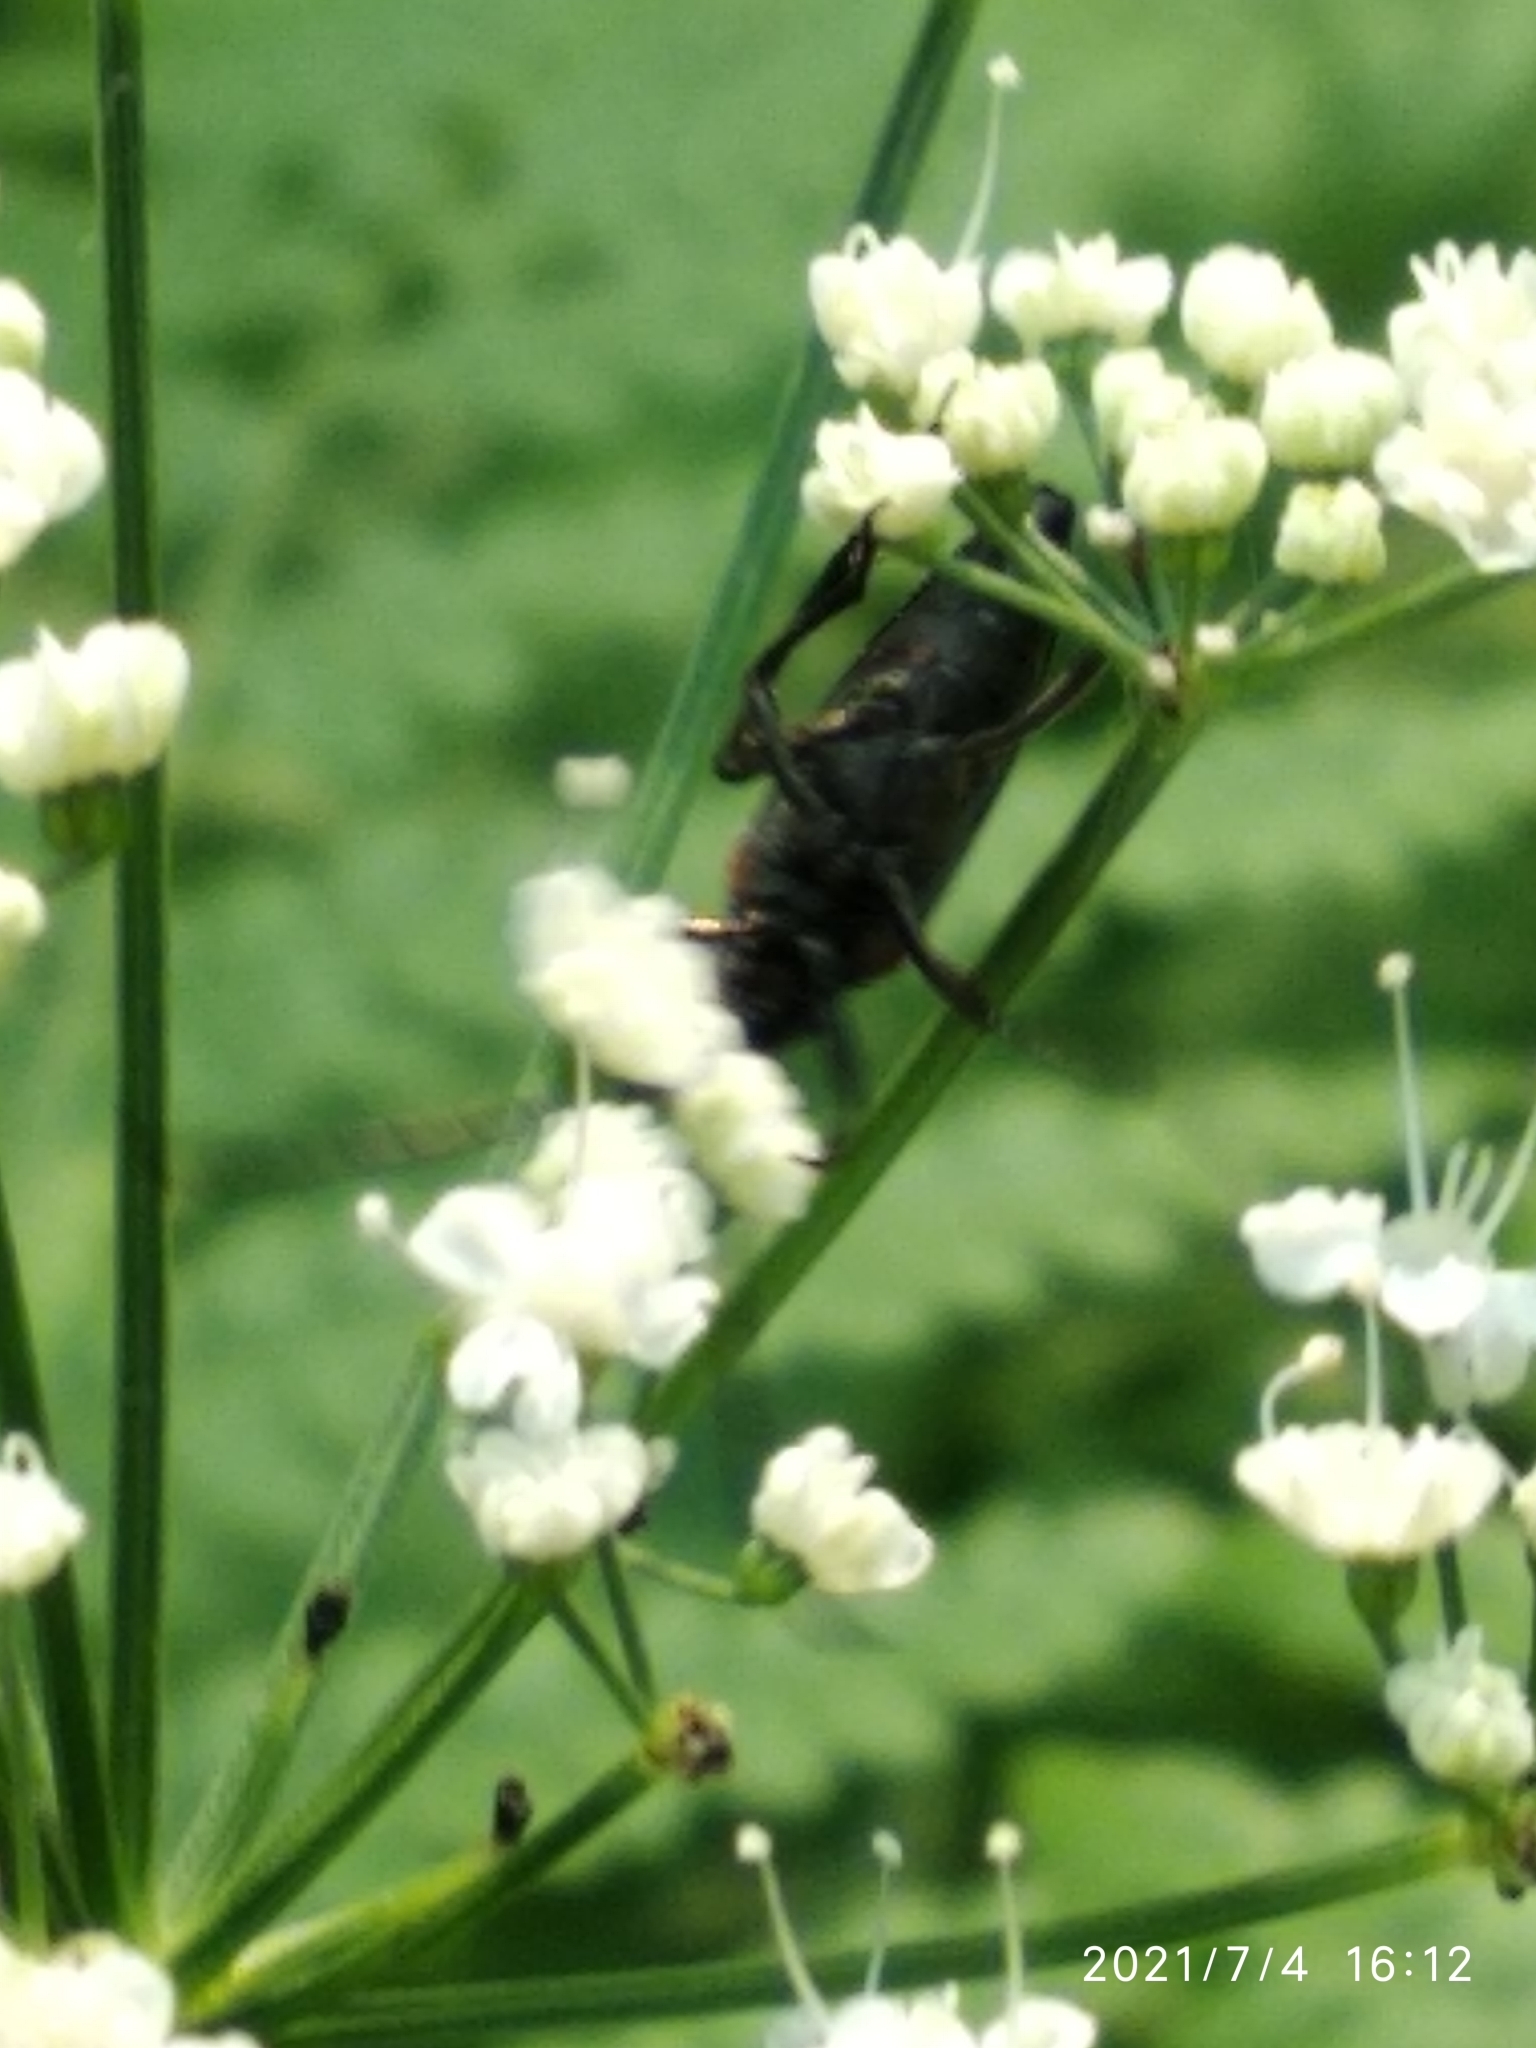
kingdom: Animalia
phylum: Arthropoda
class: Insecta
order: Coleoptera
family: Cerambycidae
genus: Stenurella
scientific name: Stenurella melanura
